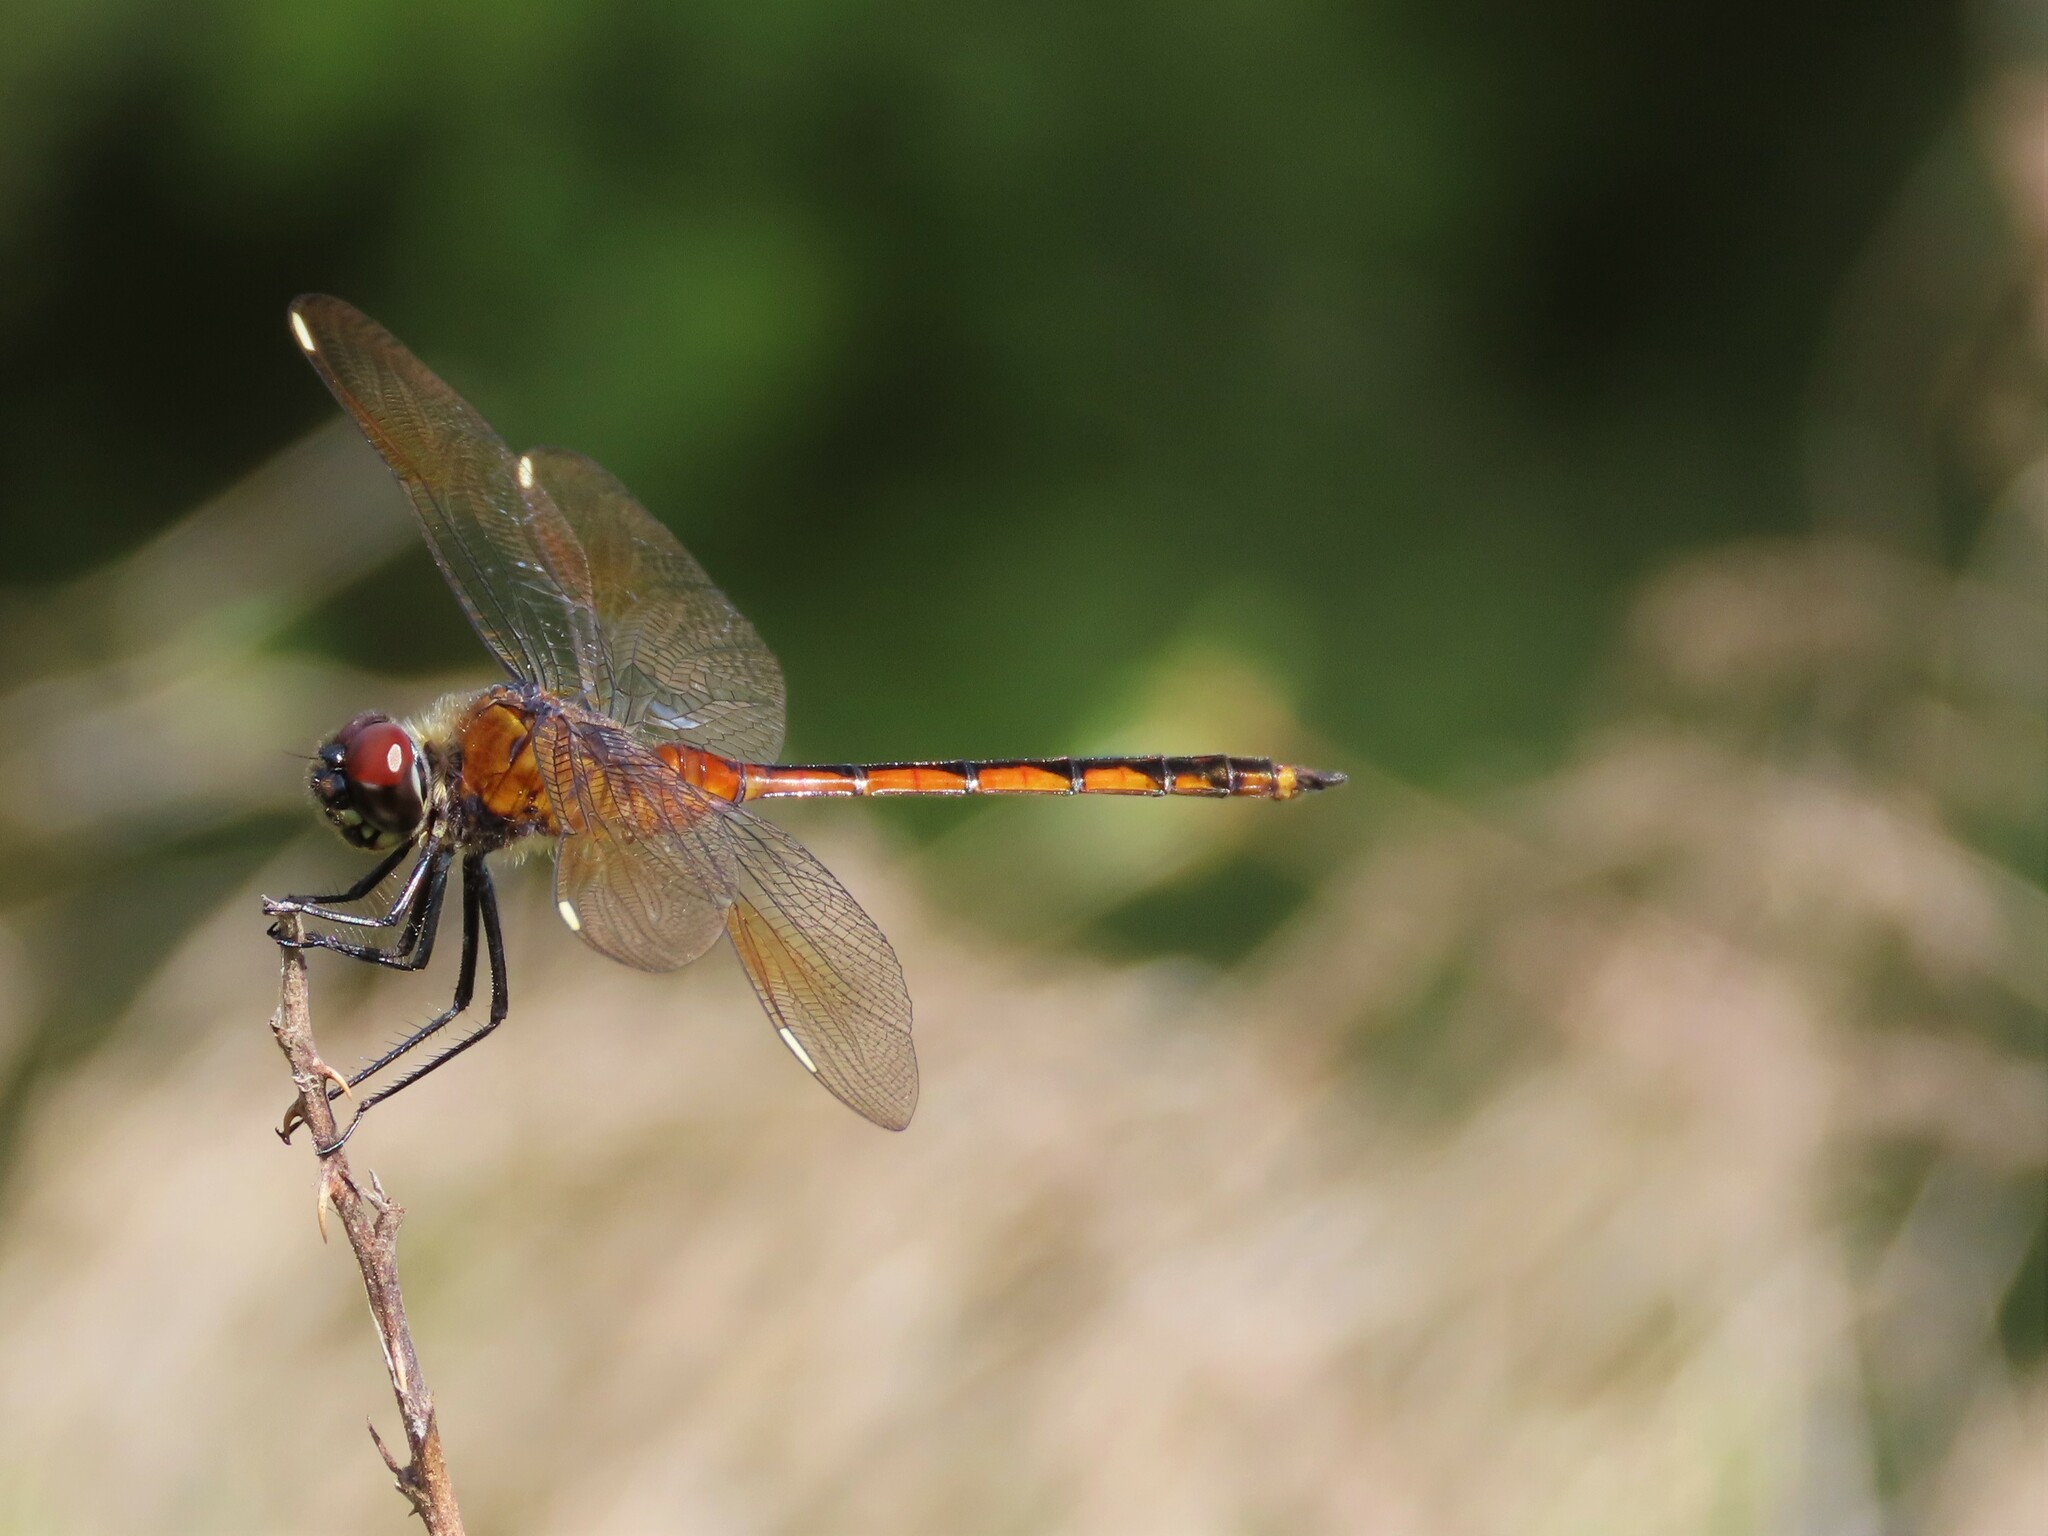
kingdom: Animalia
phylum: Arthropoda
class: Insecta
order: Odonata
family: Libellulidae
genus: Brachymesia
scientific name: Brachymesia gravida
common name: Four-spotted pennant
